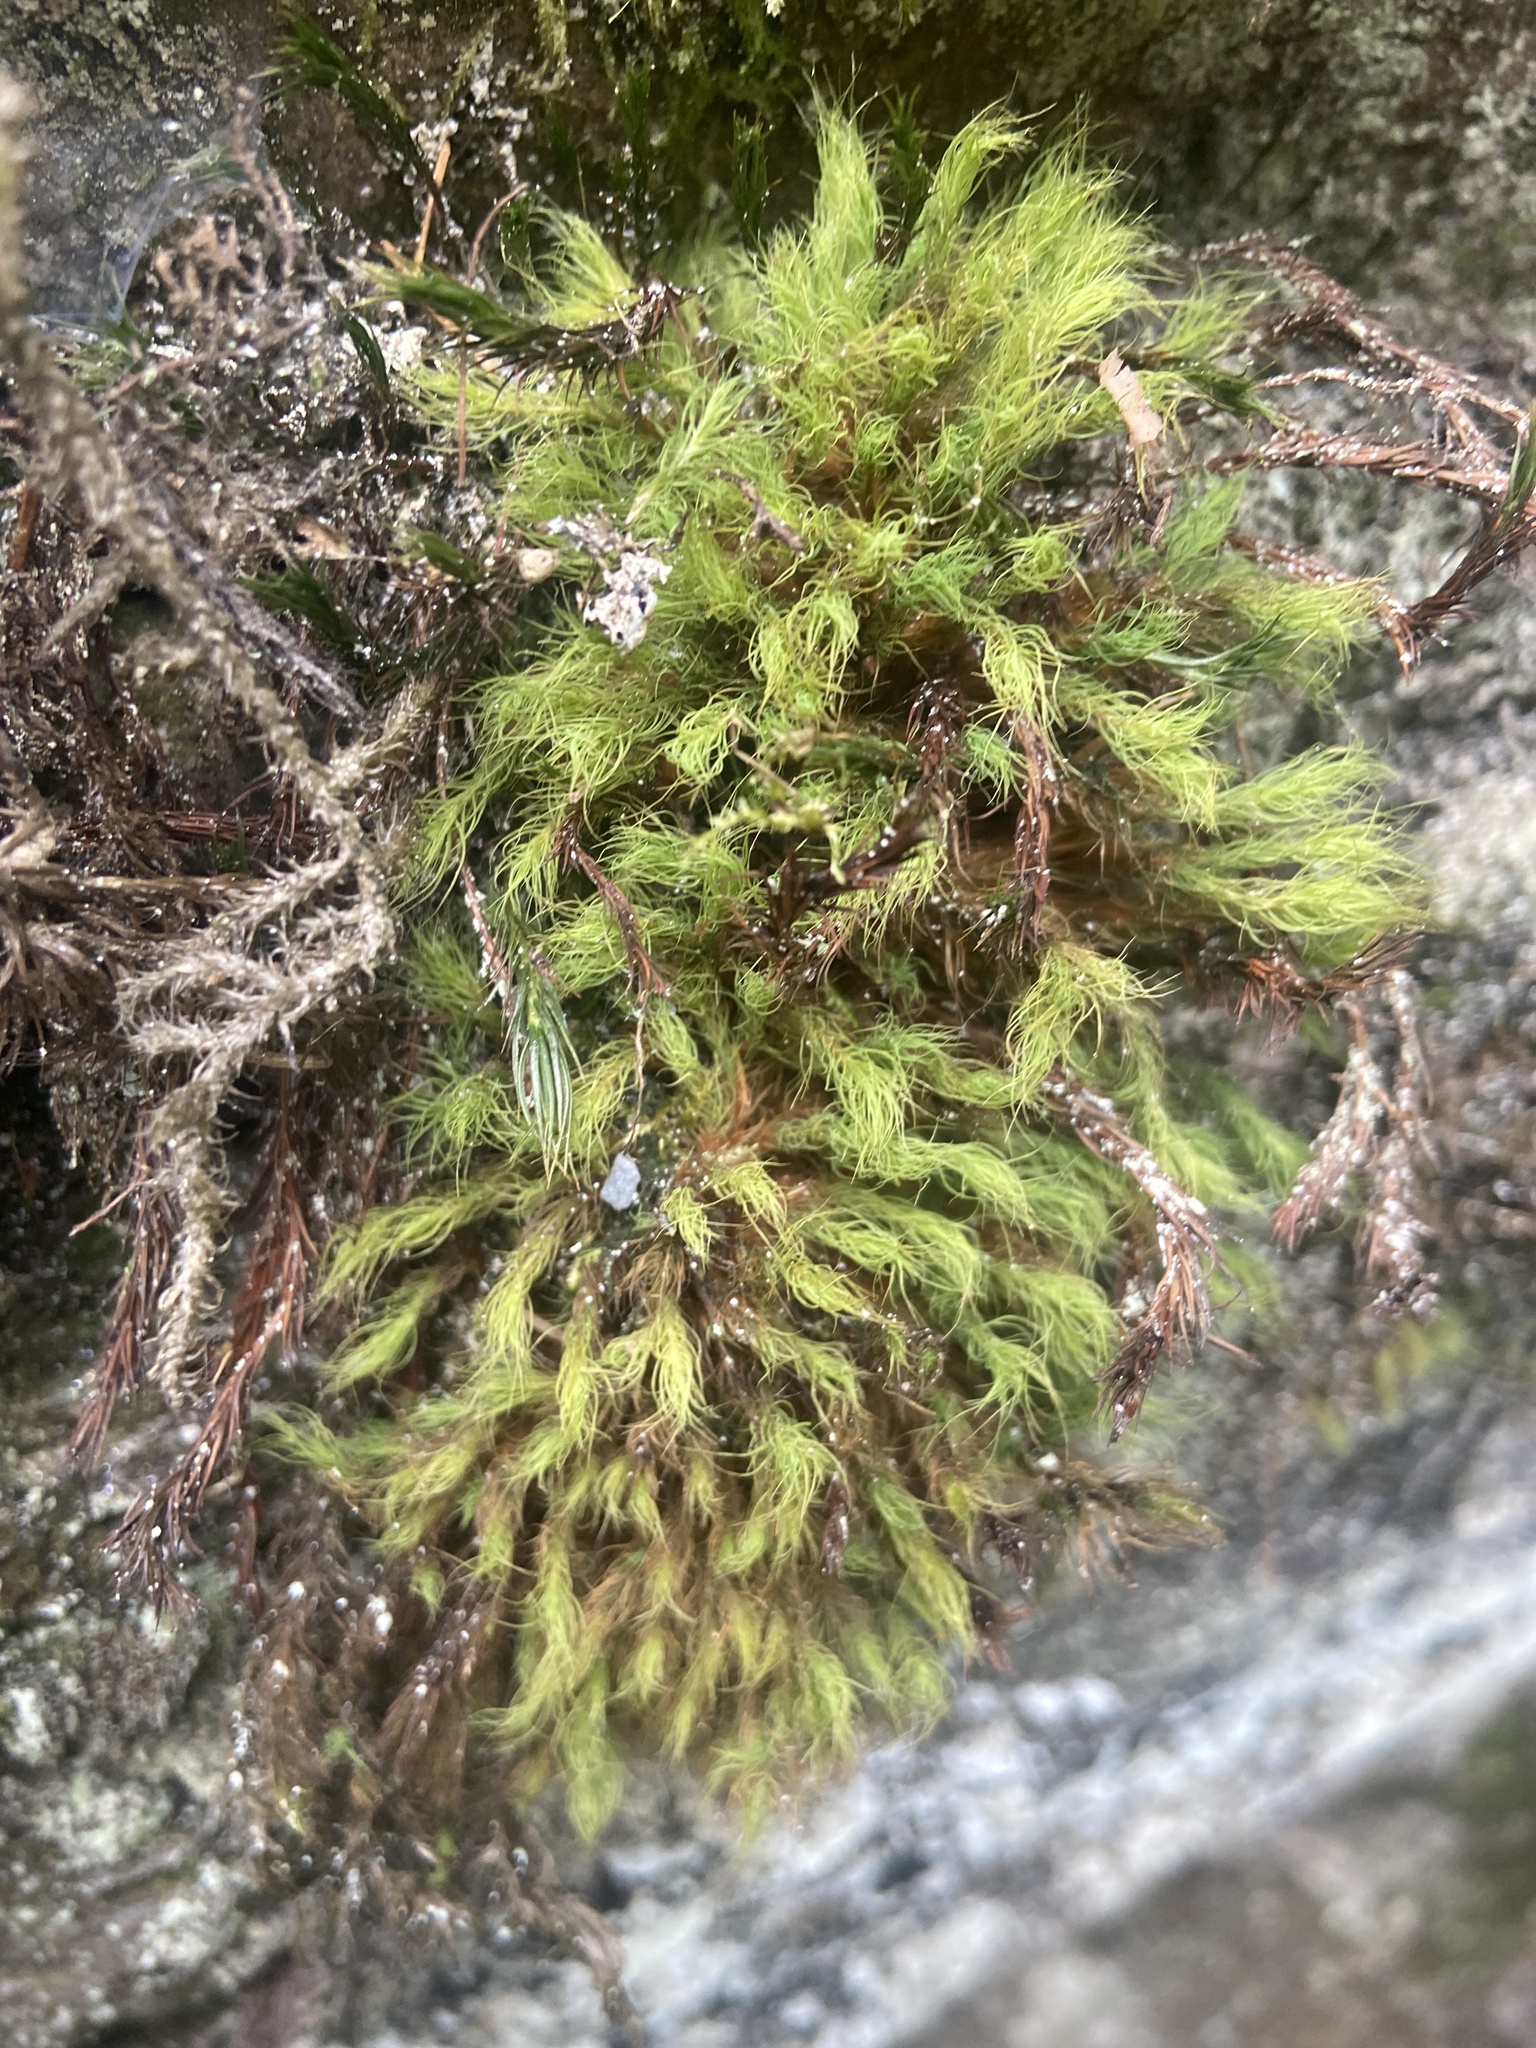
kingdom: Plantae
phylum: Bryophyta
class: Bryopsida
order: Bartramiales
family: Bartramiaceae
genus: Bartramia
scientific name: Bartramia halleriana
